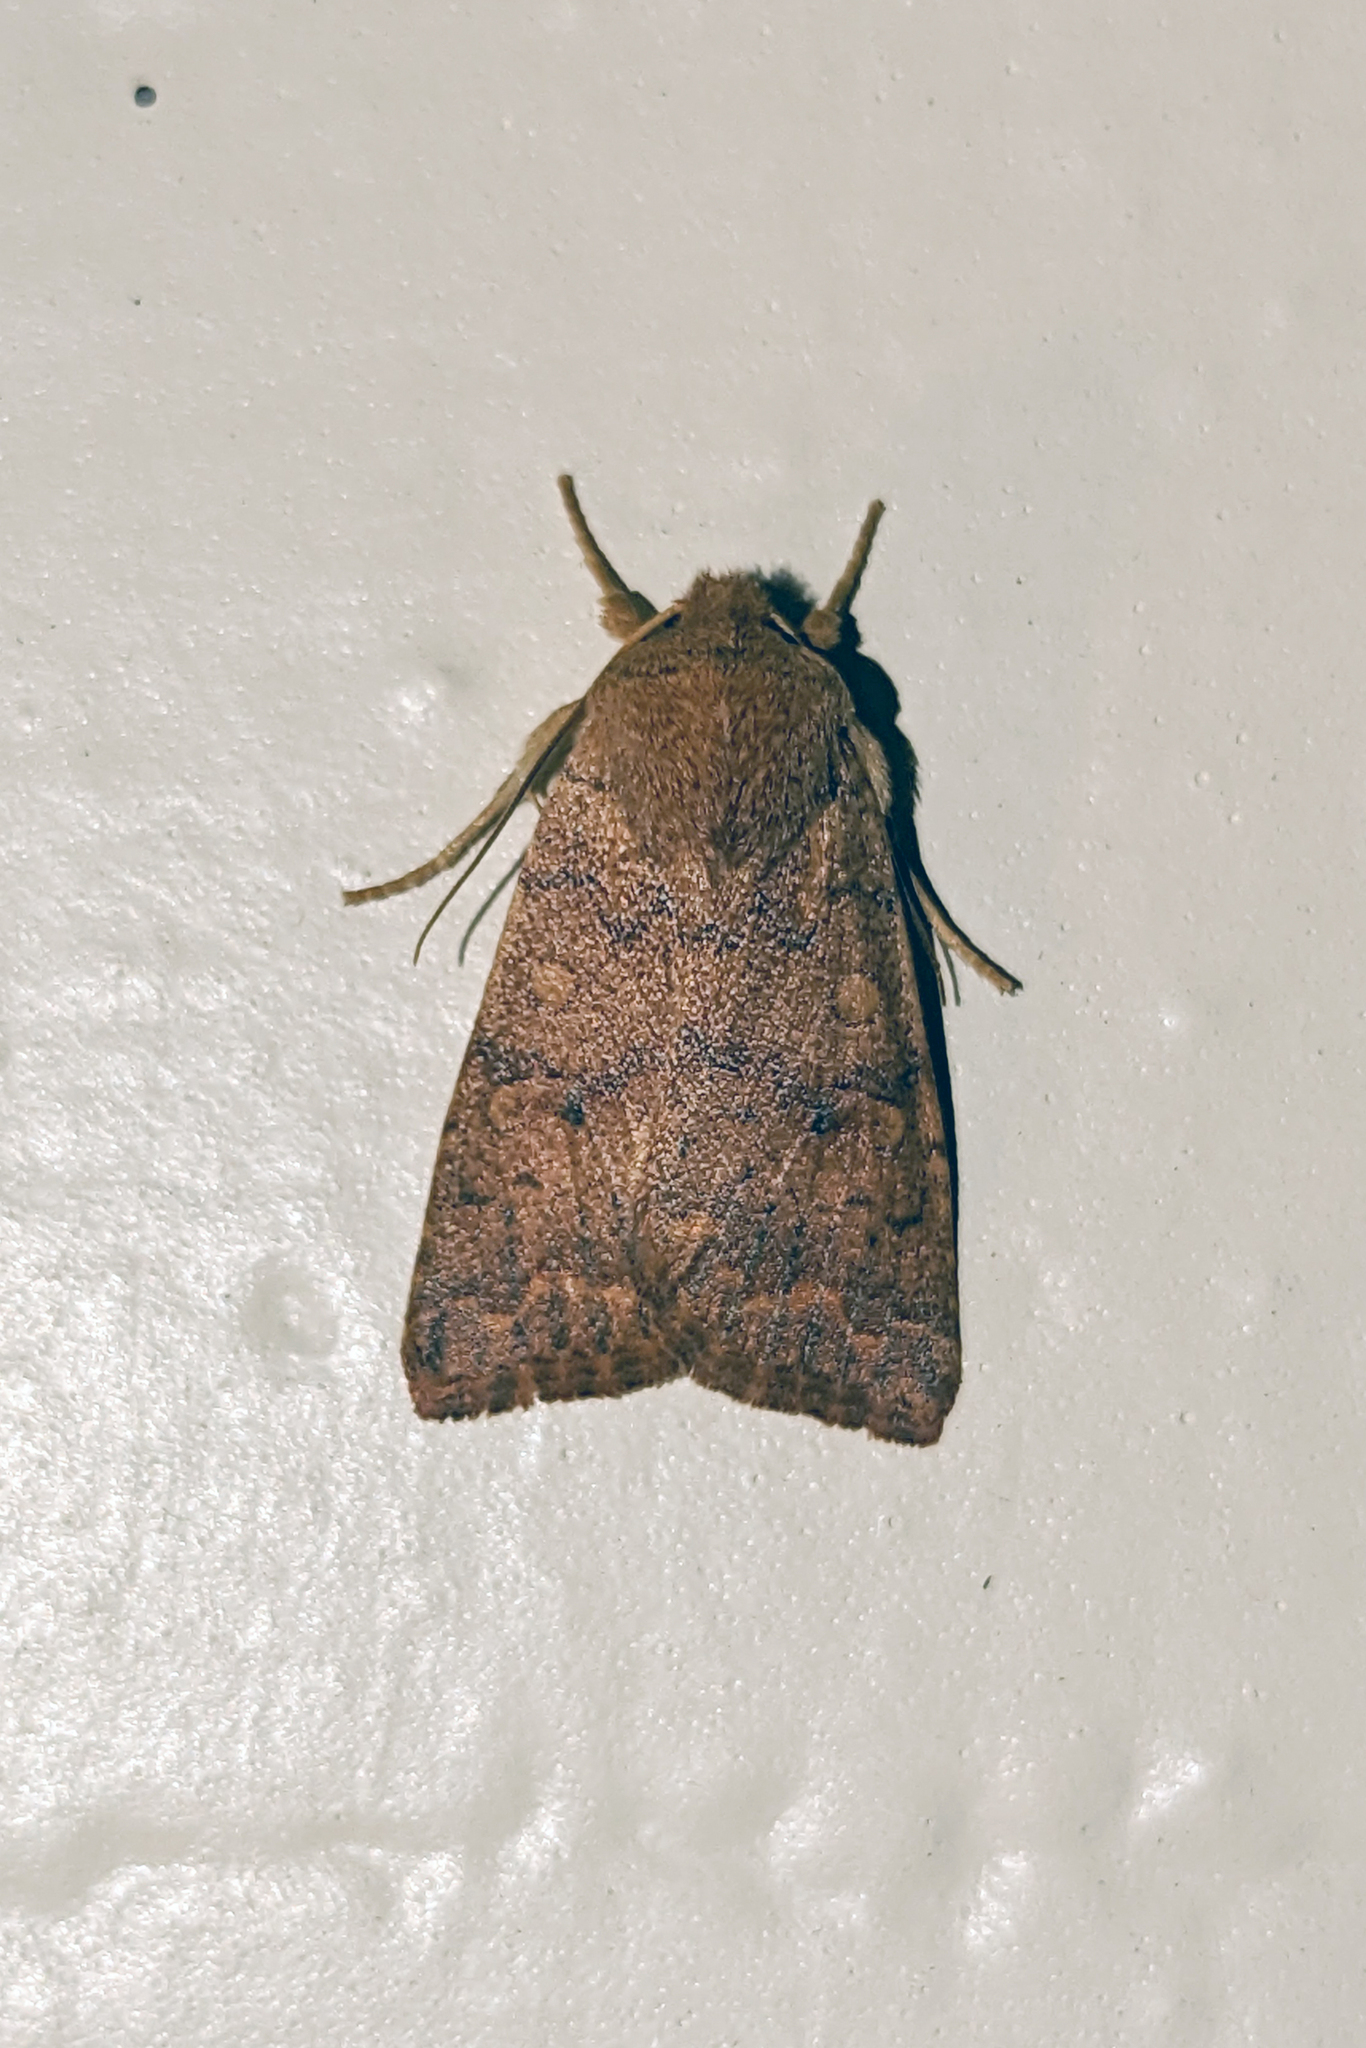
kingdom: Animalia
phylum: Arthropoda
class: Insecta
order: Lepidoptera
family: Noctuidae
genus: Agrochola
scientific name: Agrochola bicolorago
